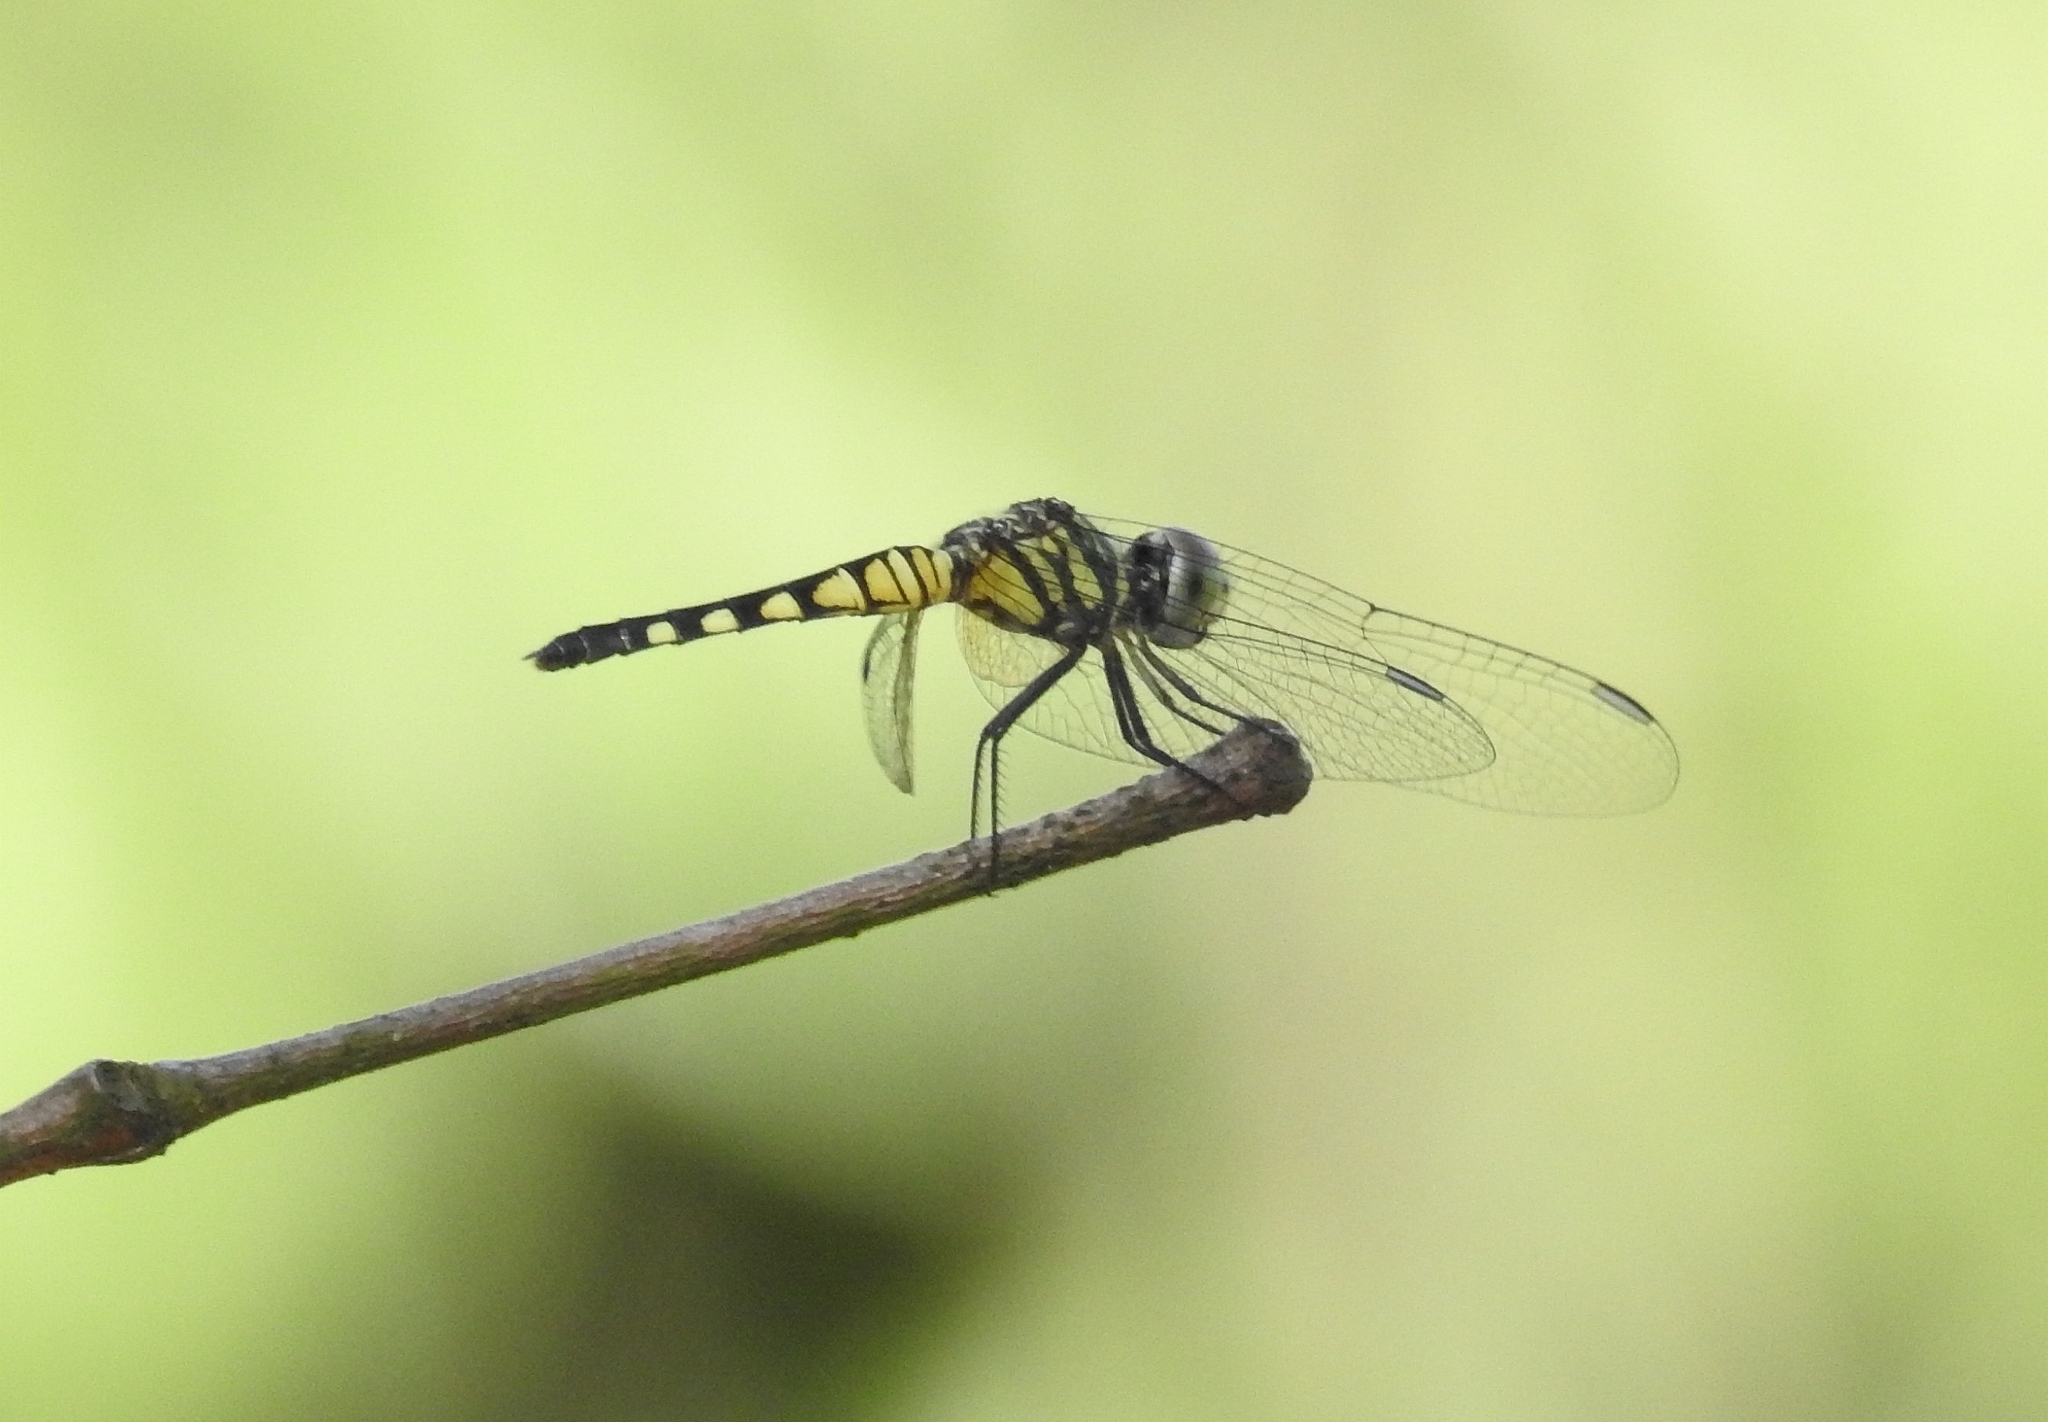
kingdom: Animalia
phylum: Arthropoda
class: Insecta
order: Odonata
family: Libellulidae
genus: Brachydiplax
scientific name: Brachydiplax sobrina
